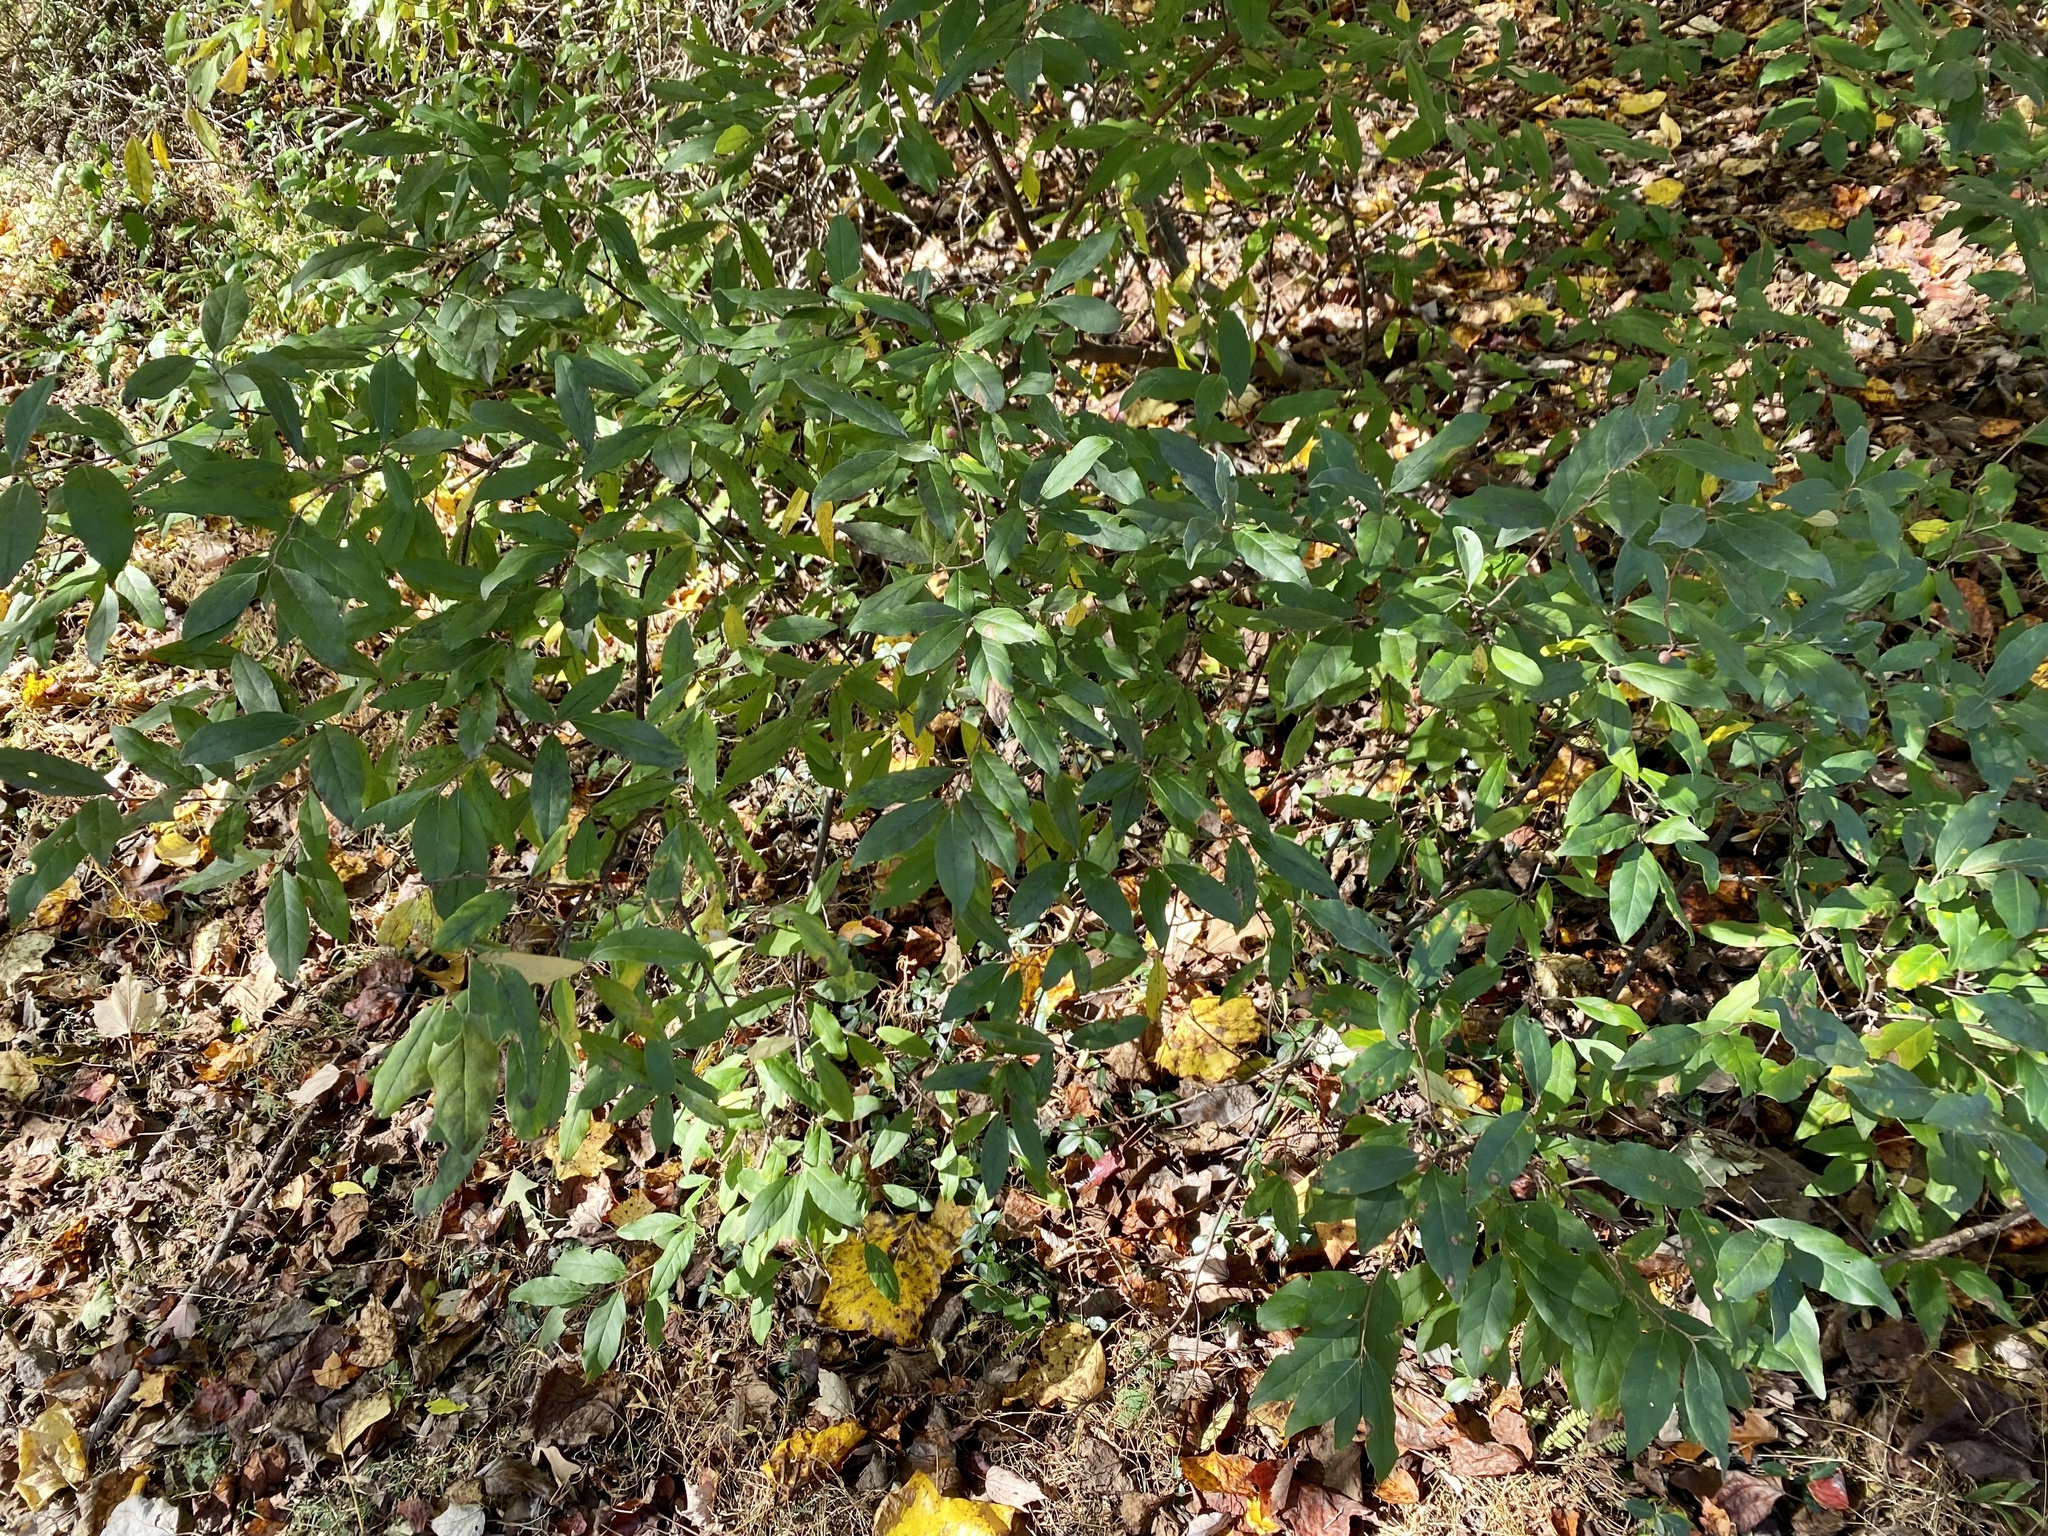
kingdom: Plantae
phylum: Tracheophyta
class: Magnoliopsida
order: Rosales
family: Elaeagnaceae
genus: Elaeagnus
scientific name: Elaeagnus umbellata
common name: Autumn olive
